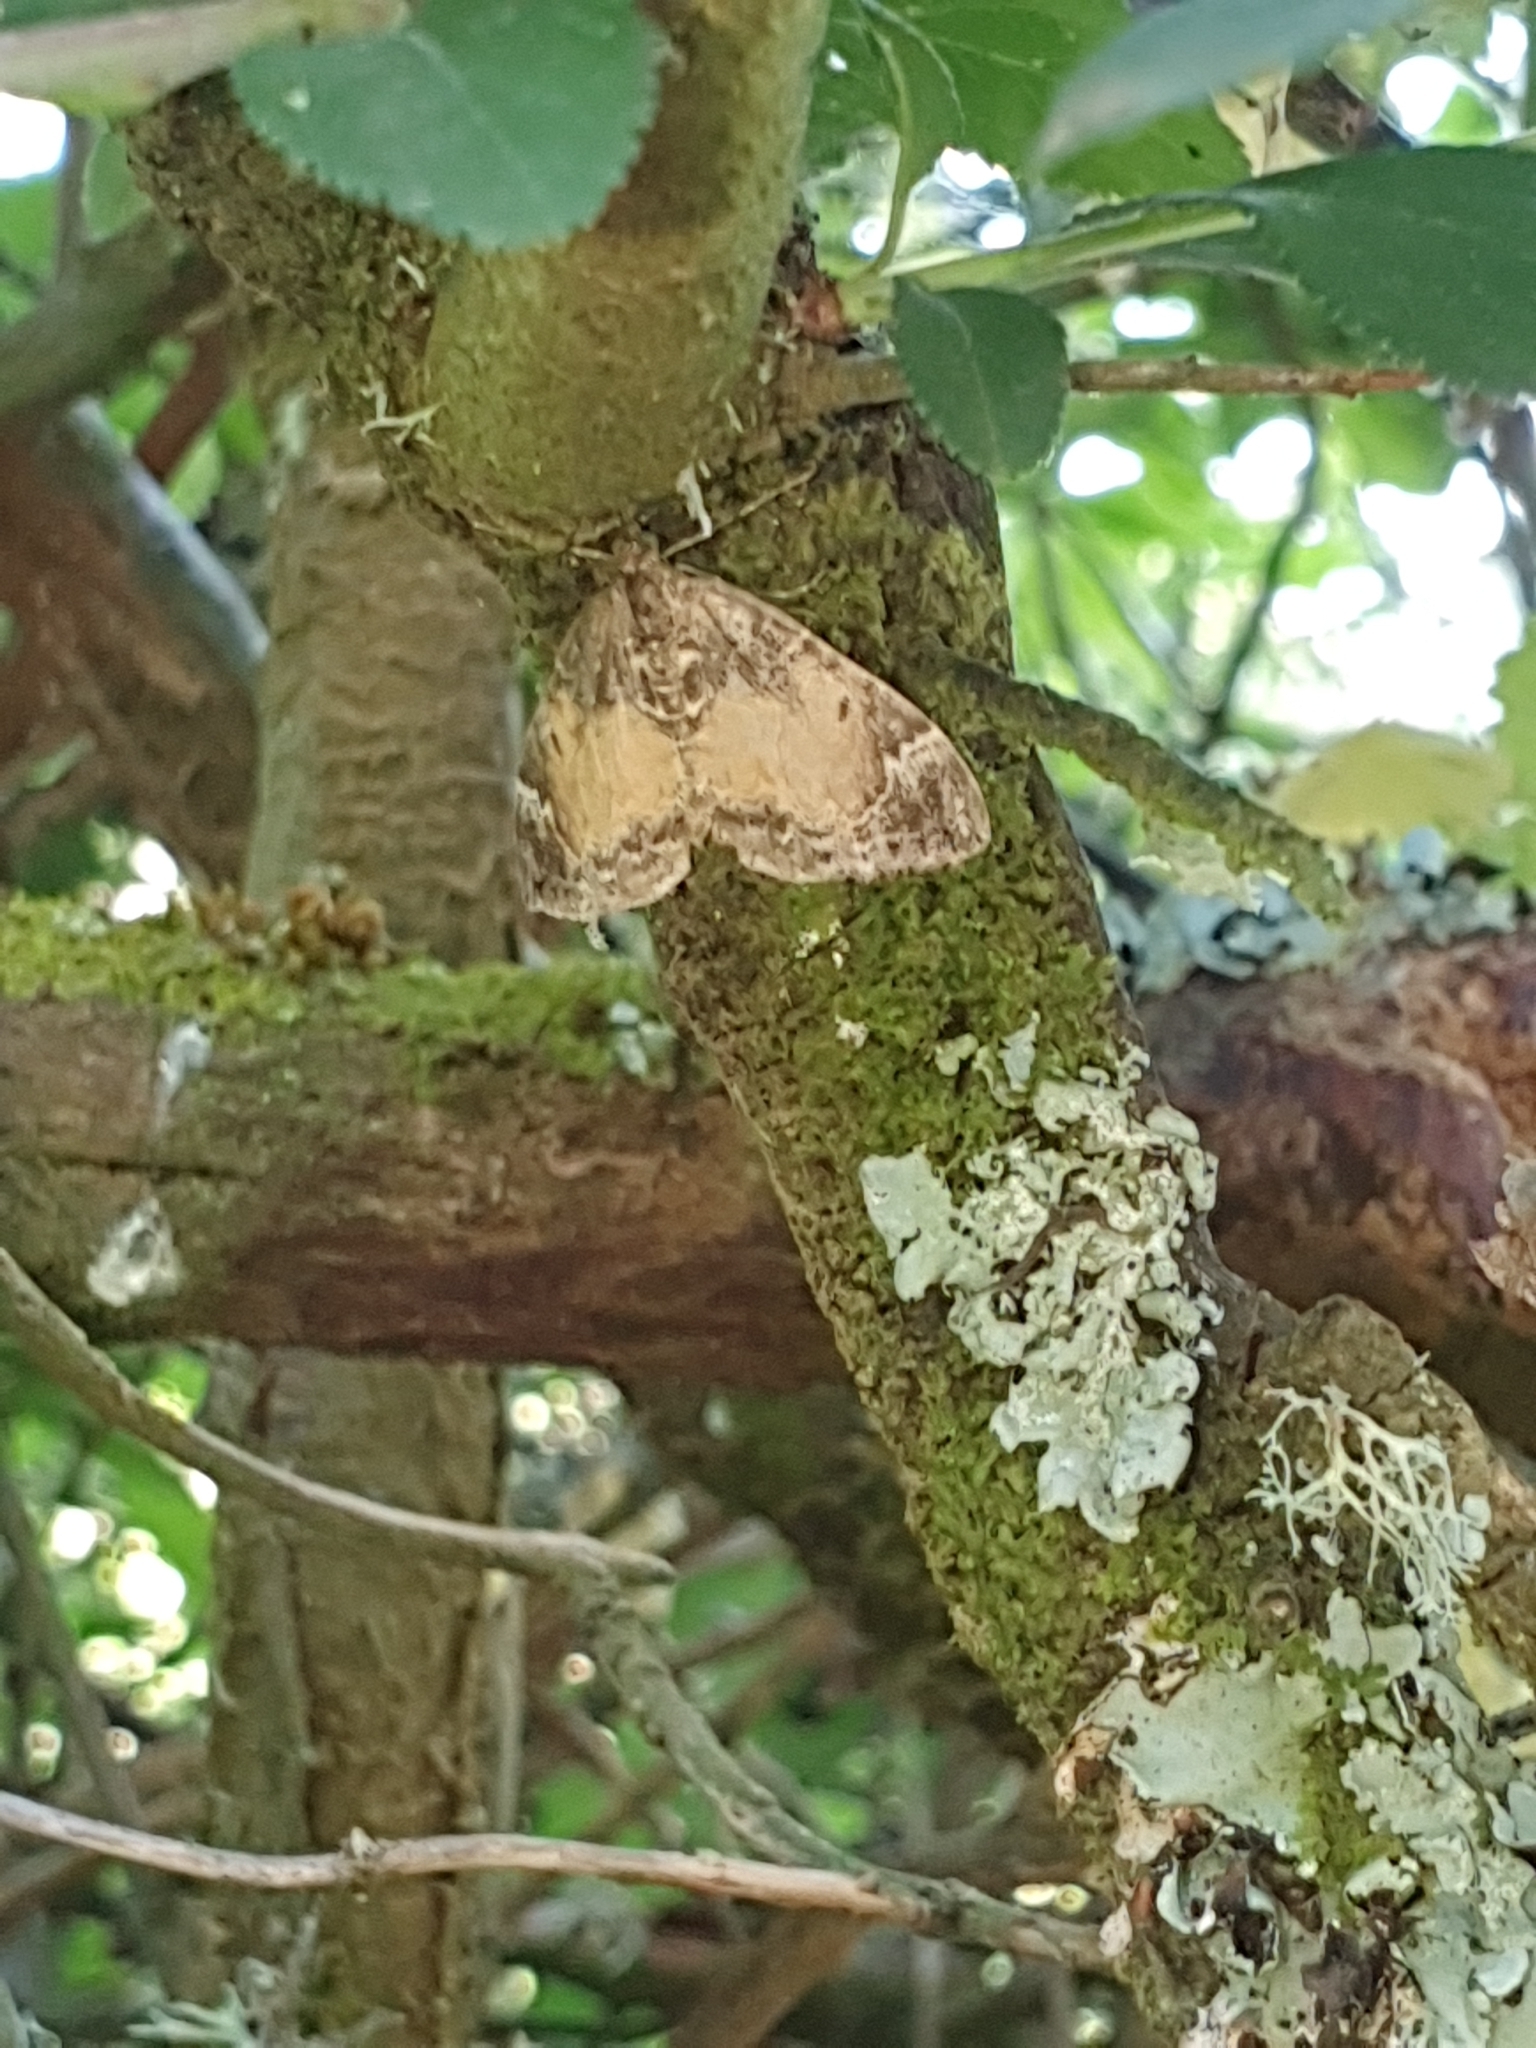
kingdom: Animalia
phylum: Arthropoda
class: Insecta
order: Lepidoptera
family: Geometridae
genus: Dysstroma
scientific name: Dysstroma truncata
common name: Common marbled carpet
